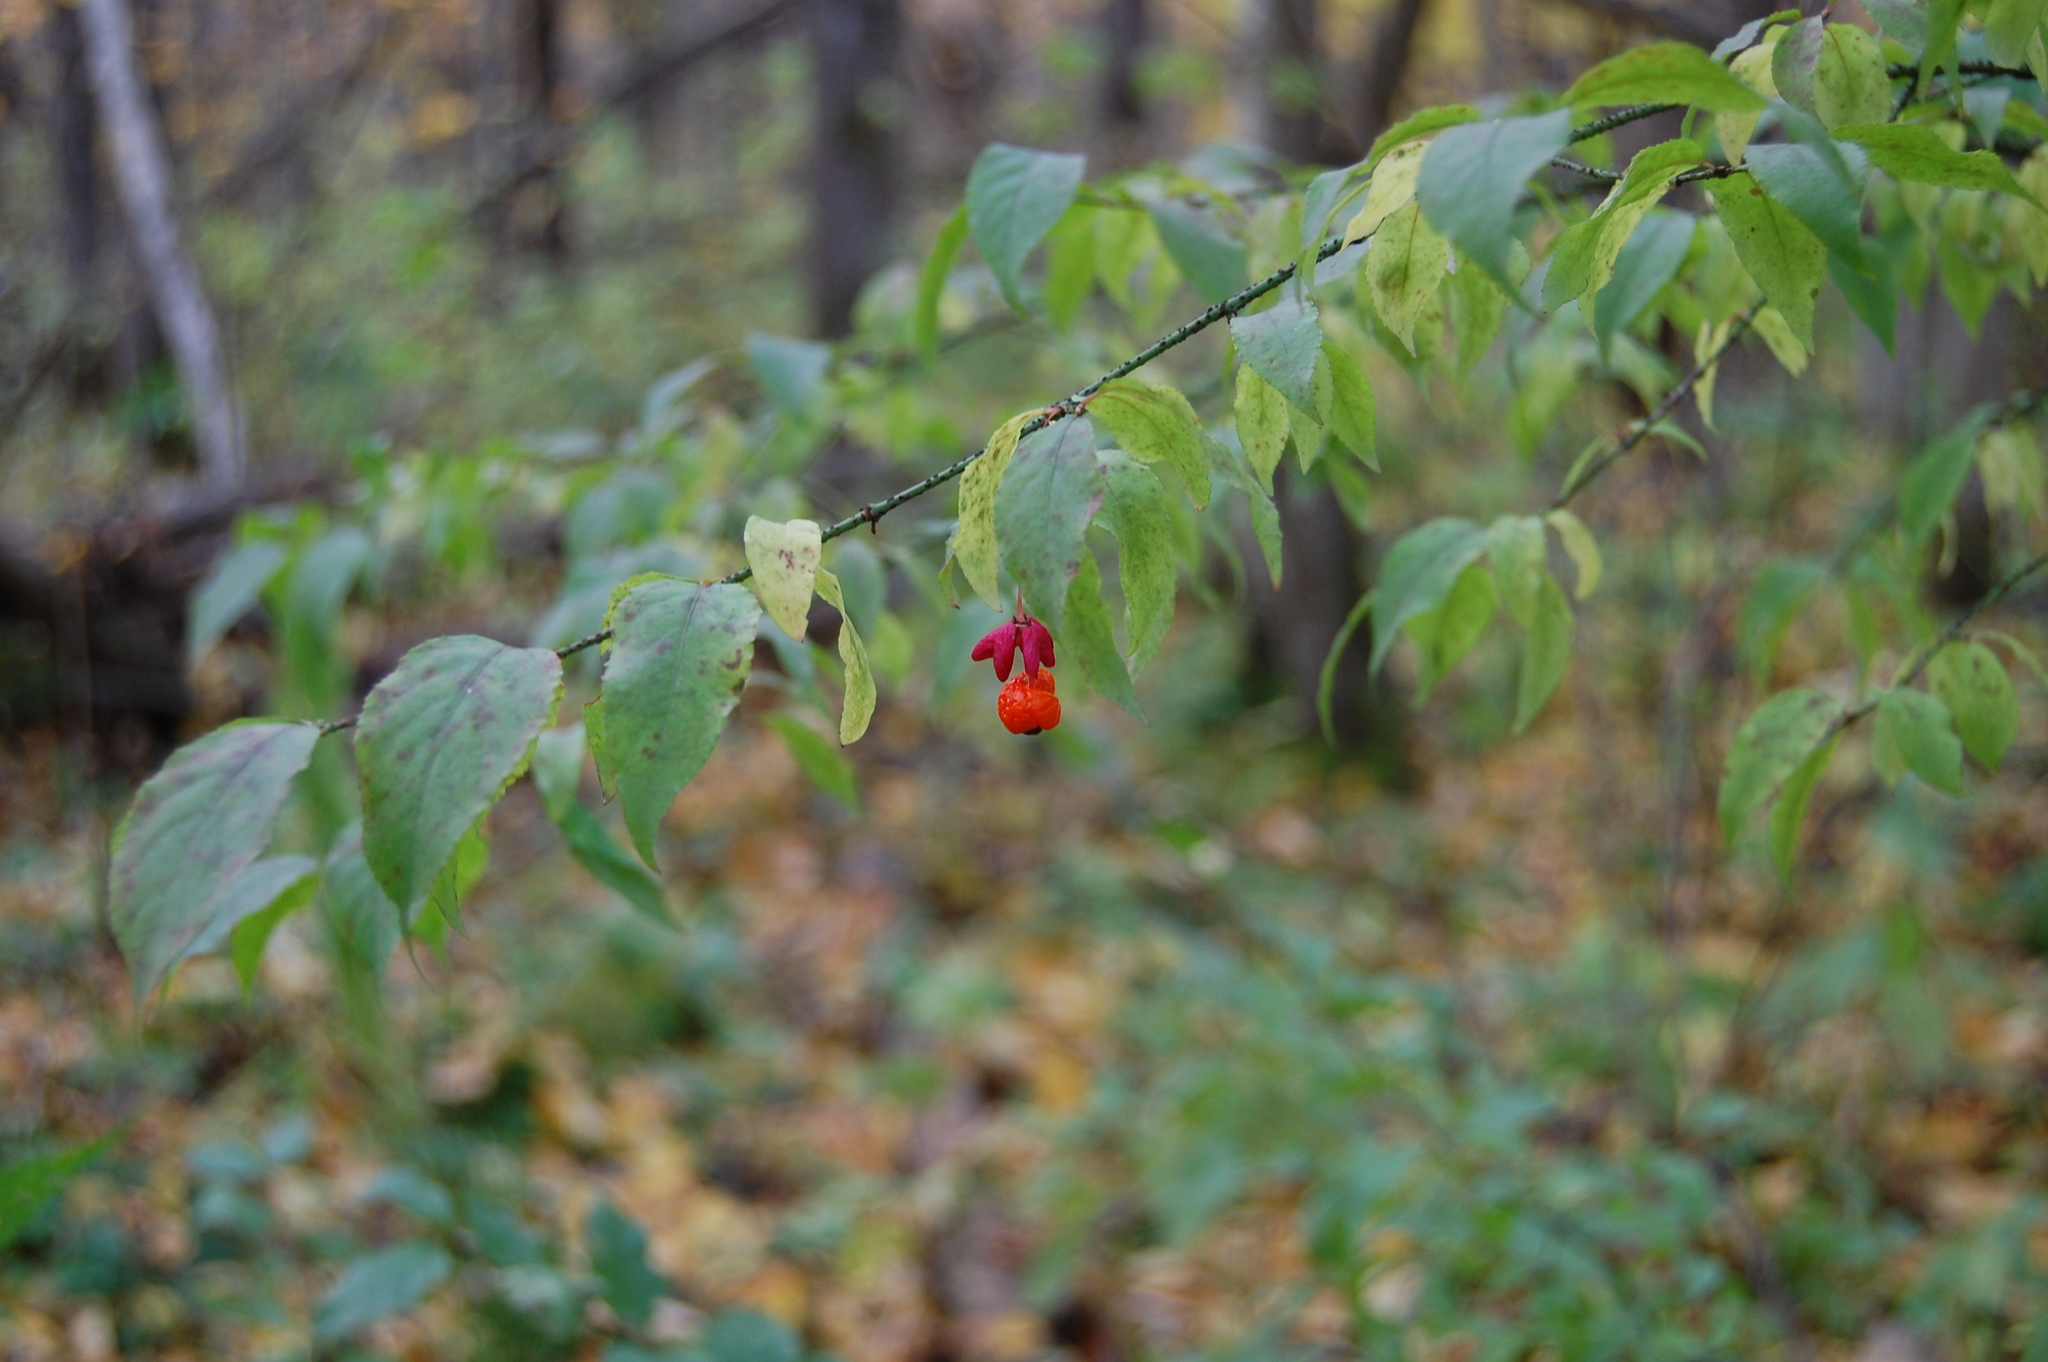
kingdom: Plantae
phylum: Tracheophyta
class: Magnoliopsida
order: Celastrales
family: Celastraceae
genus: Euonymus
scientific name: Euonymus verrucosus
